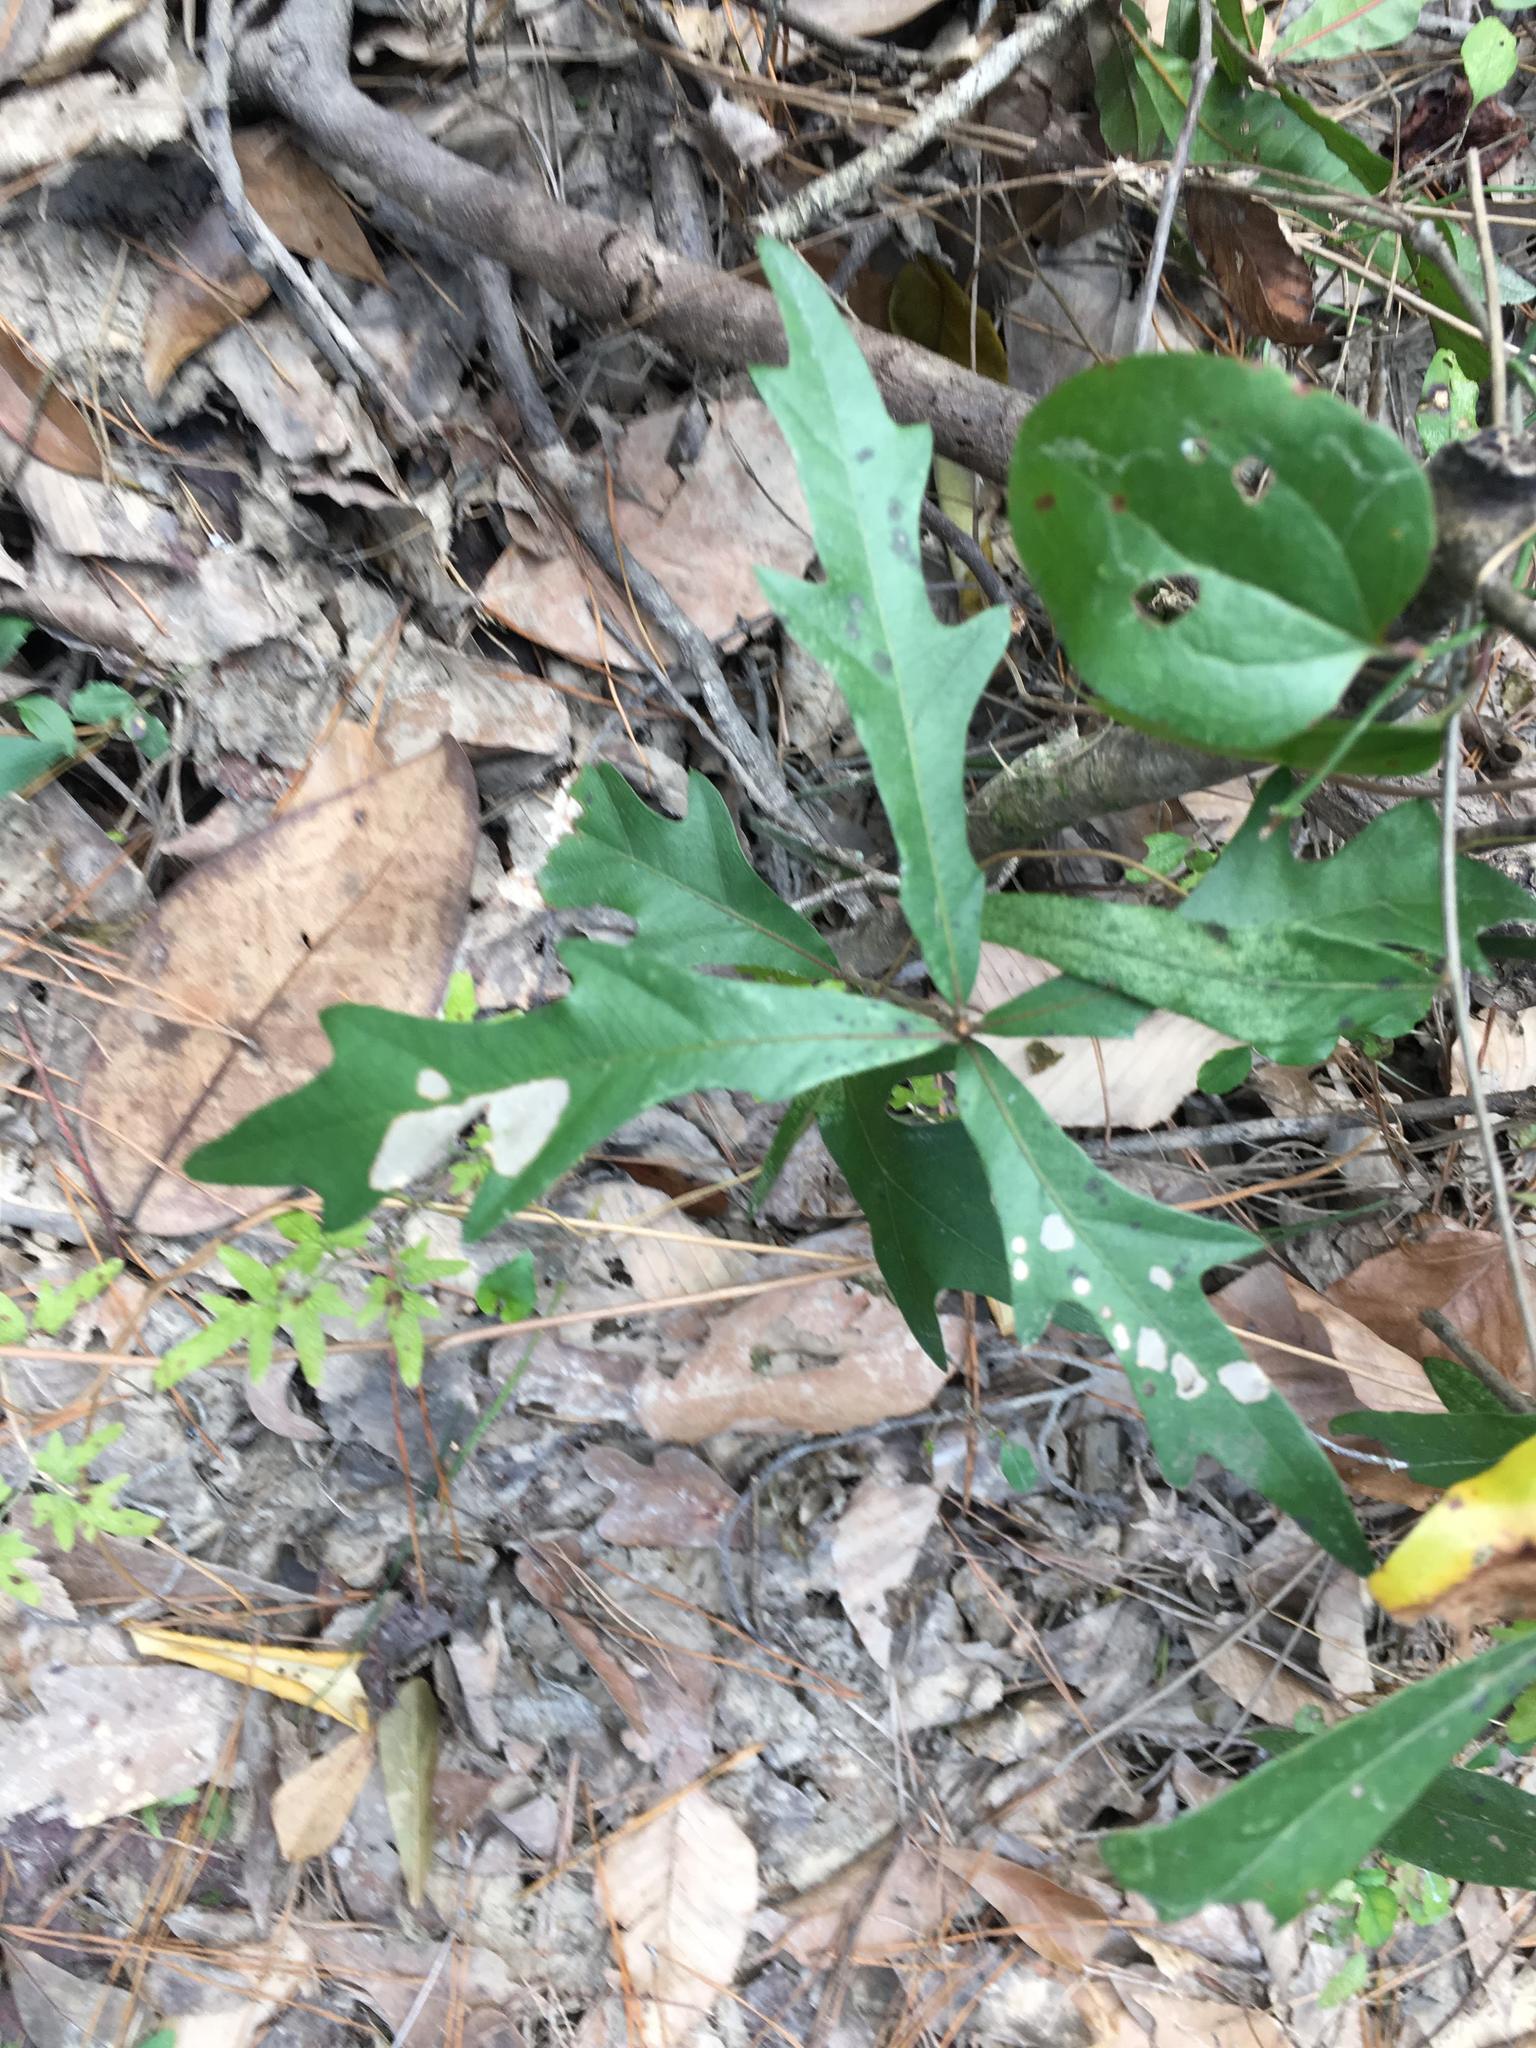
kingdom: Plantae
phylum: Tracheophyta
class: Magnoliopsida
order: Fagales
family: Fagaceae
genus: Quercus
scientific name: Quercus nigra
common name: Water oak
